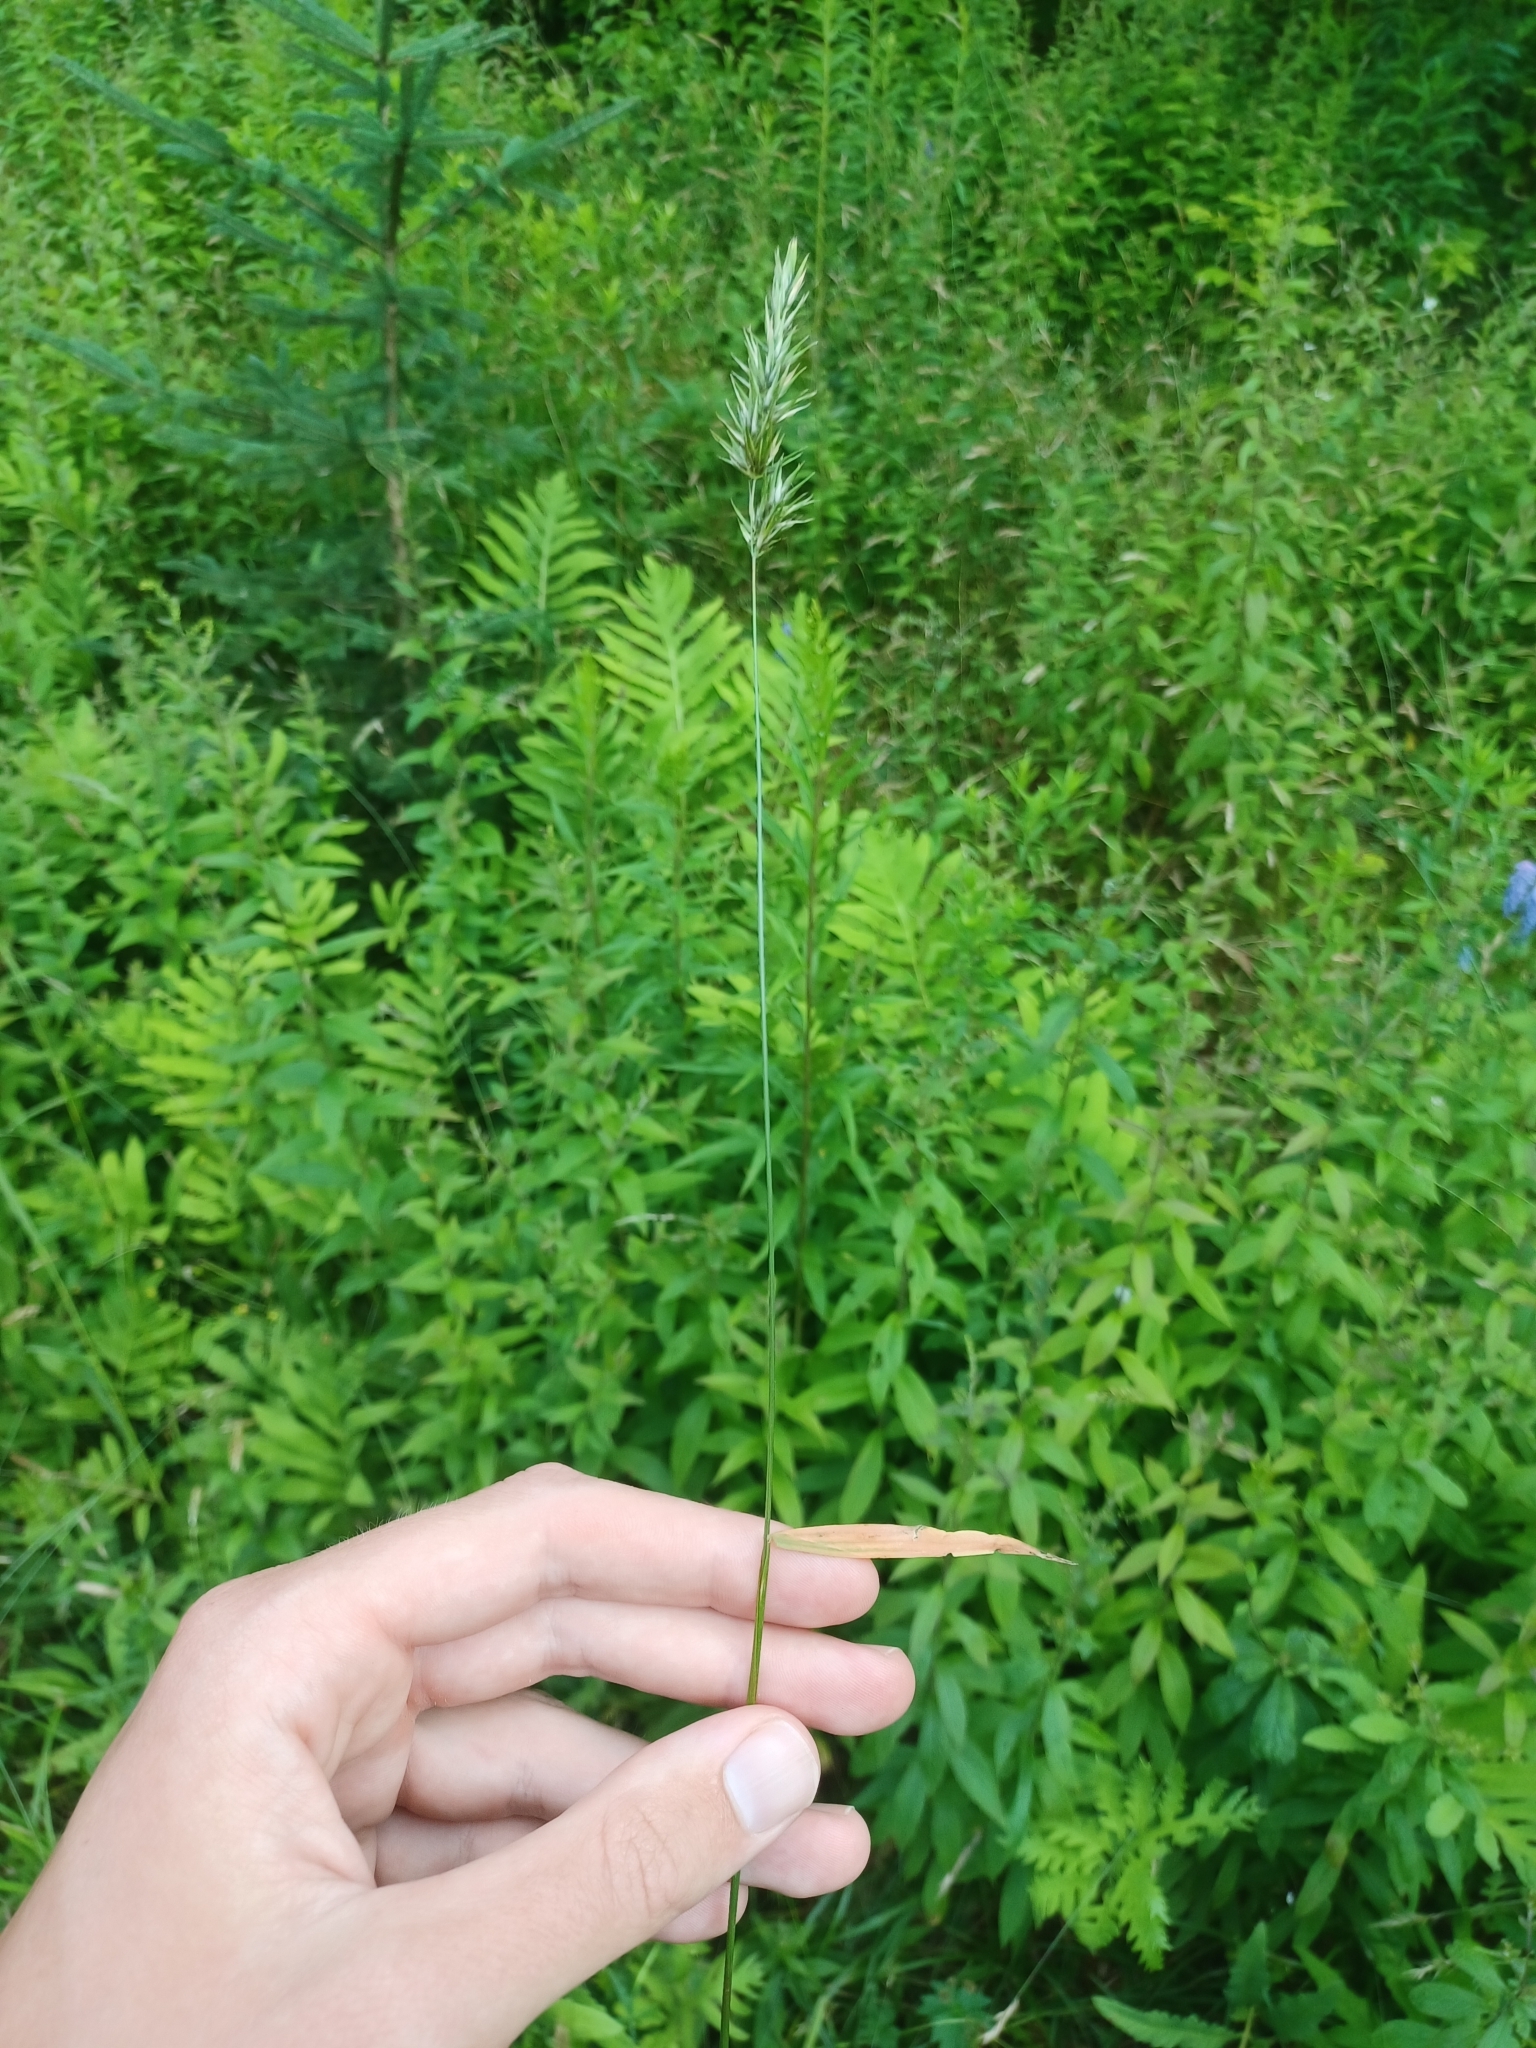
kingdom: Plantae
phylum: Tracheophyta
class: Liliopsida
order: Poales
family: Poaceae
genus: Anthoxanthum
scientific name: Anthoxanthum odoratum
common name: Sweet vernalgrass
